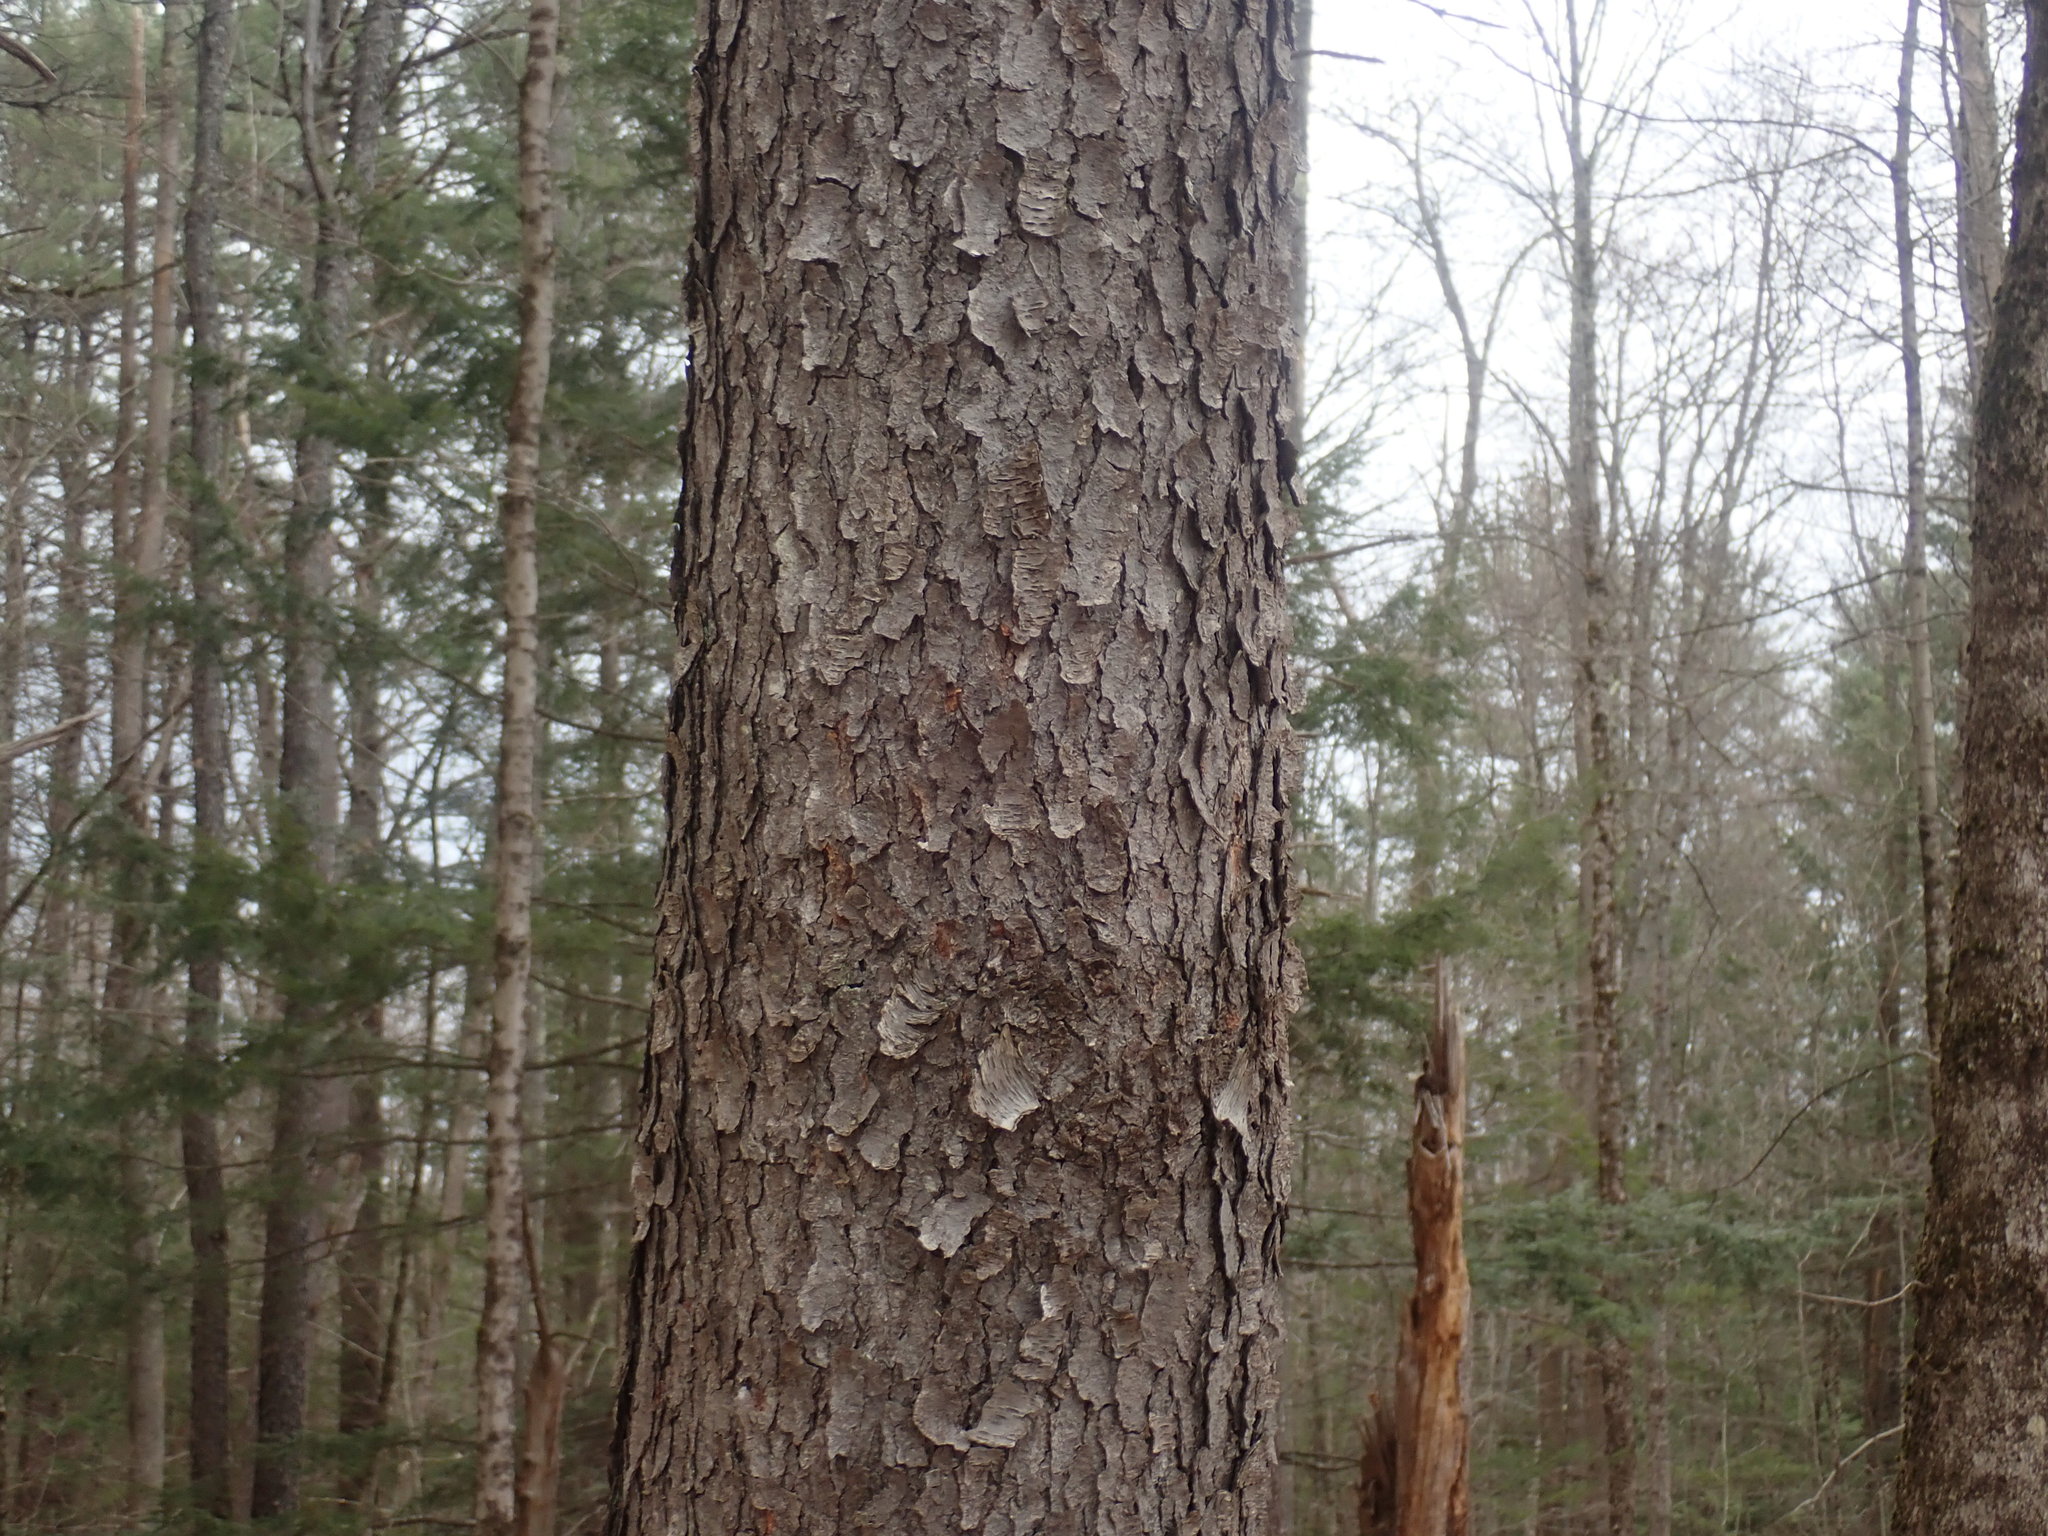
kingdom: Plantae
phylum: Tracheophyta
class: Magnoliopsida
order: Rosales
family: Rosaceae
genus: Prunus
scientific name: Prunus serotina
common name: Black cherry
